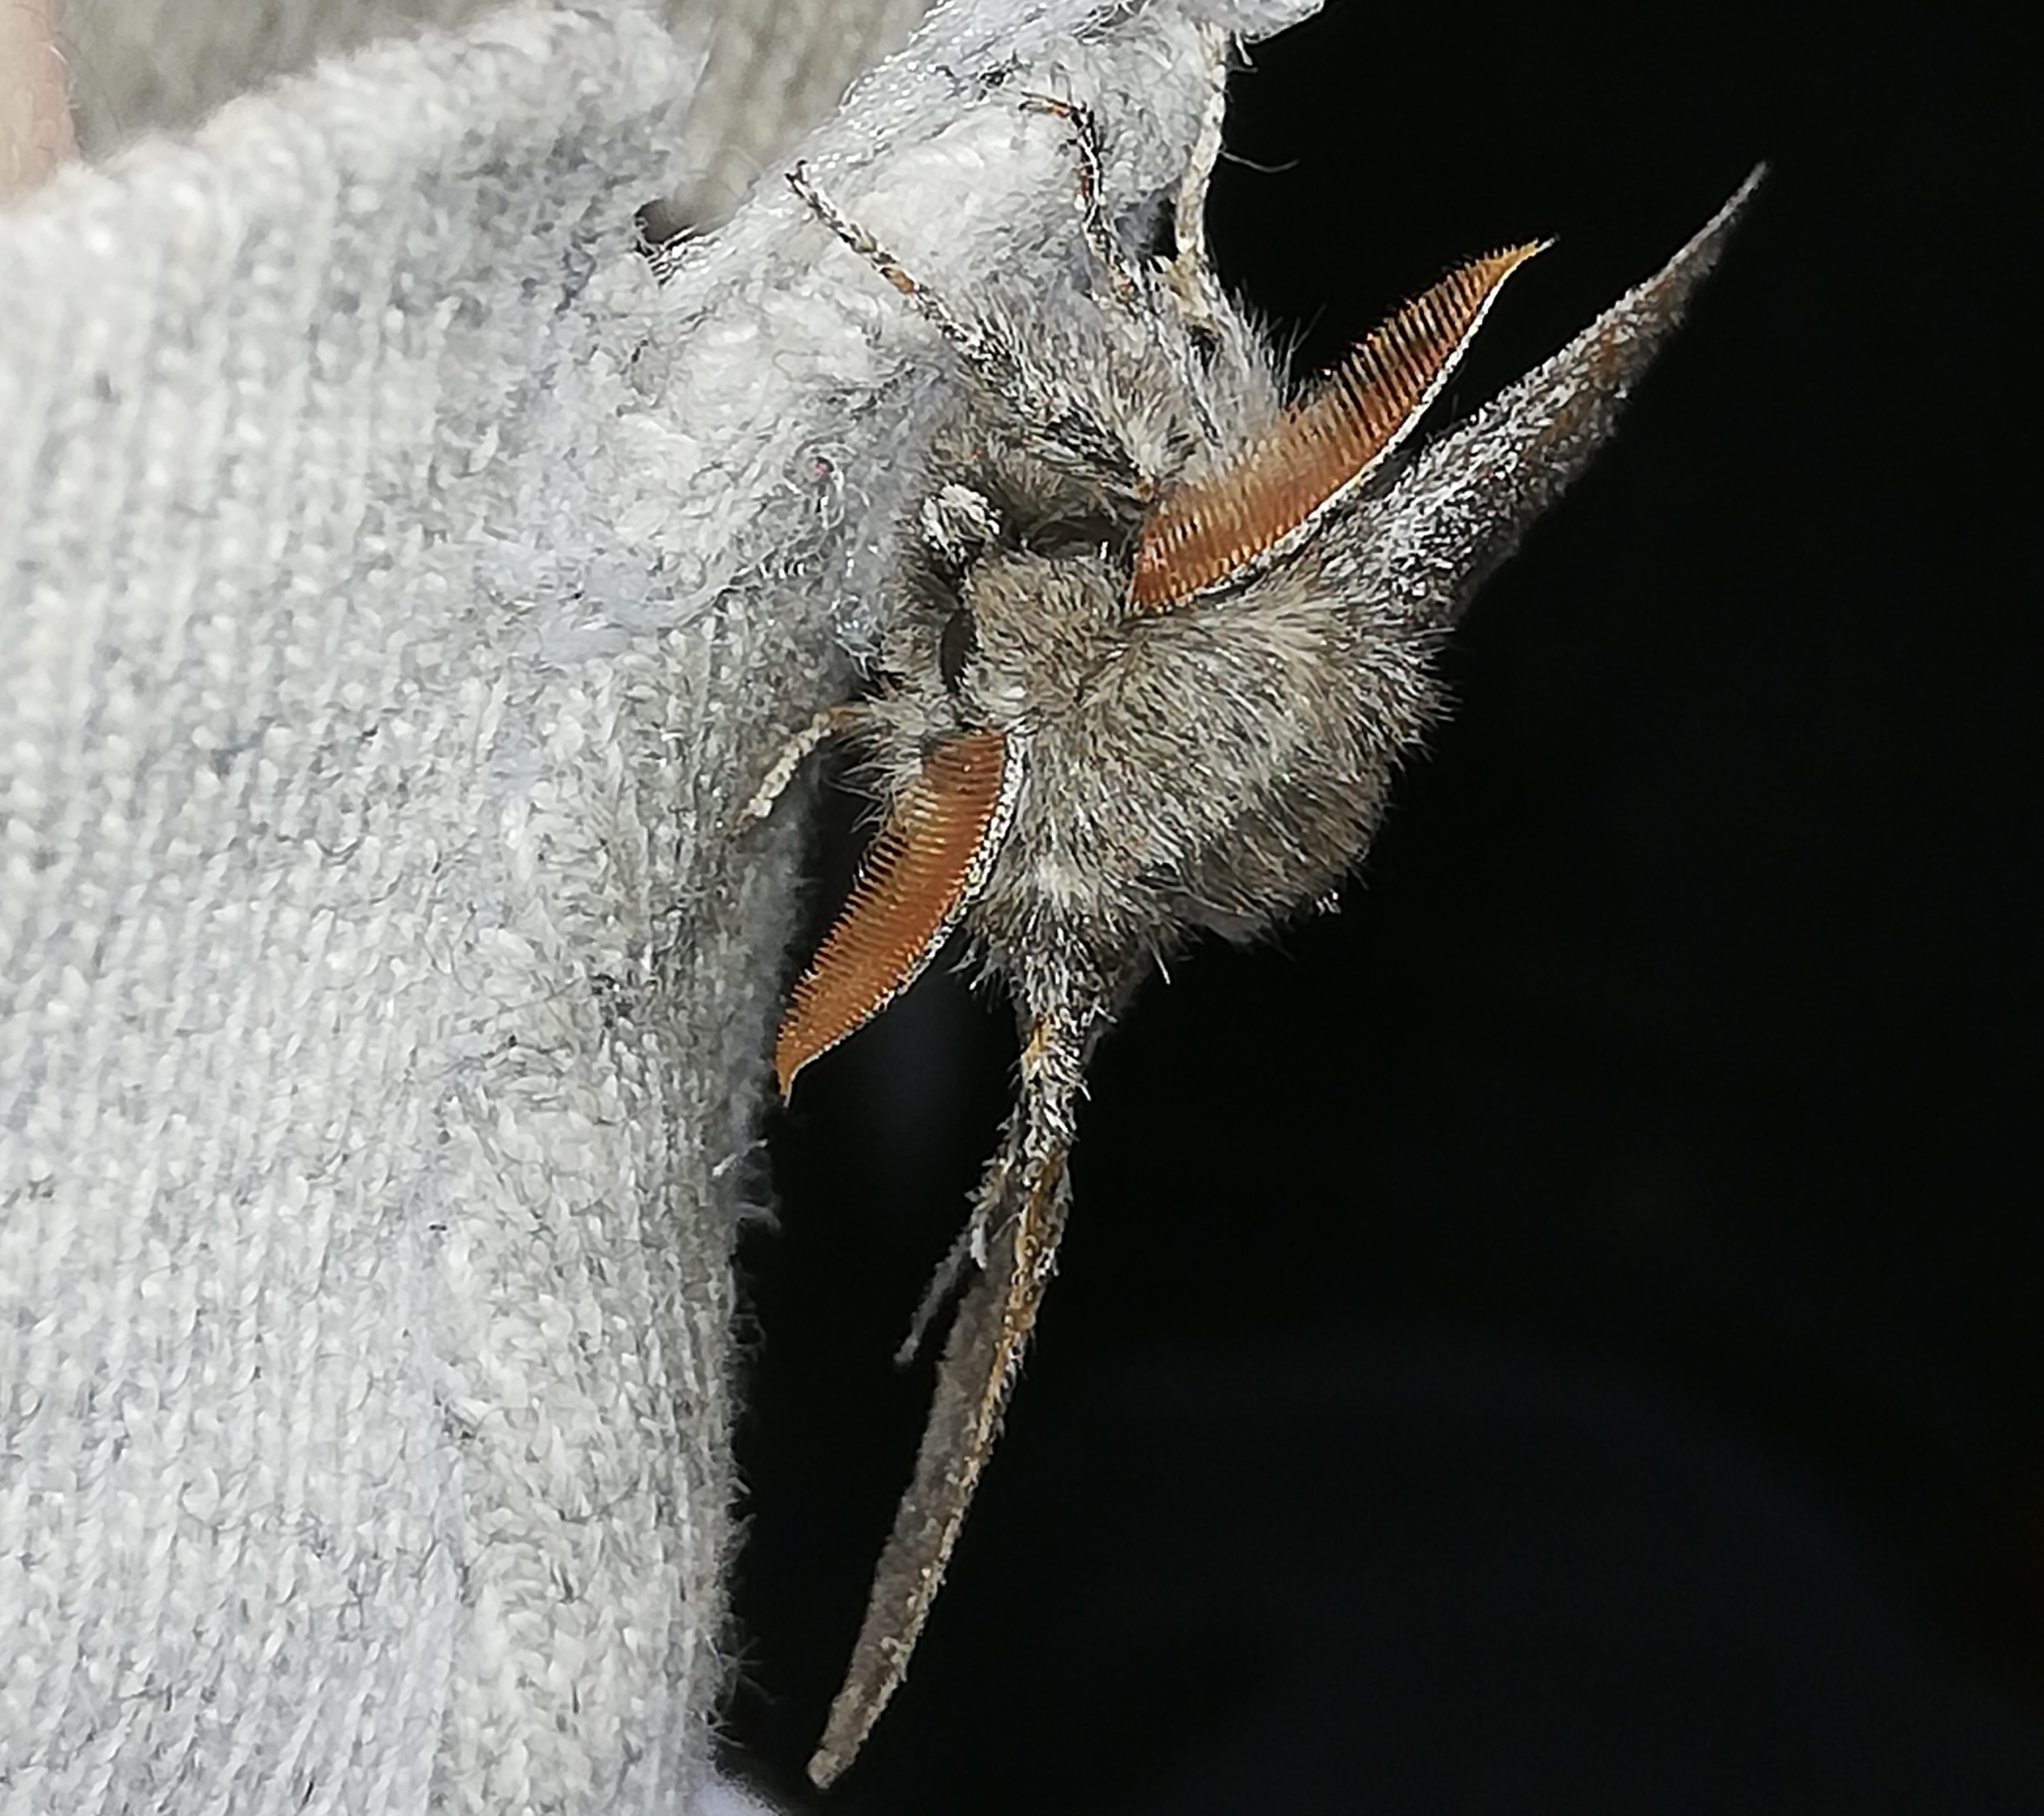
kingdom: Animalia
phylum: Arthropoda
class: Insecta
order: Lepidoptera
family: Erebidae
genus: Calliteara
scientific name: Calliteara pudibunda
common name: Pale tussock
